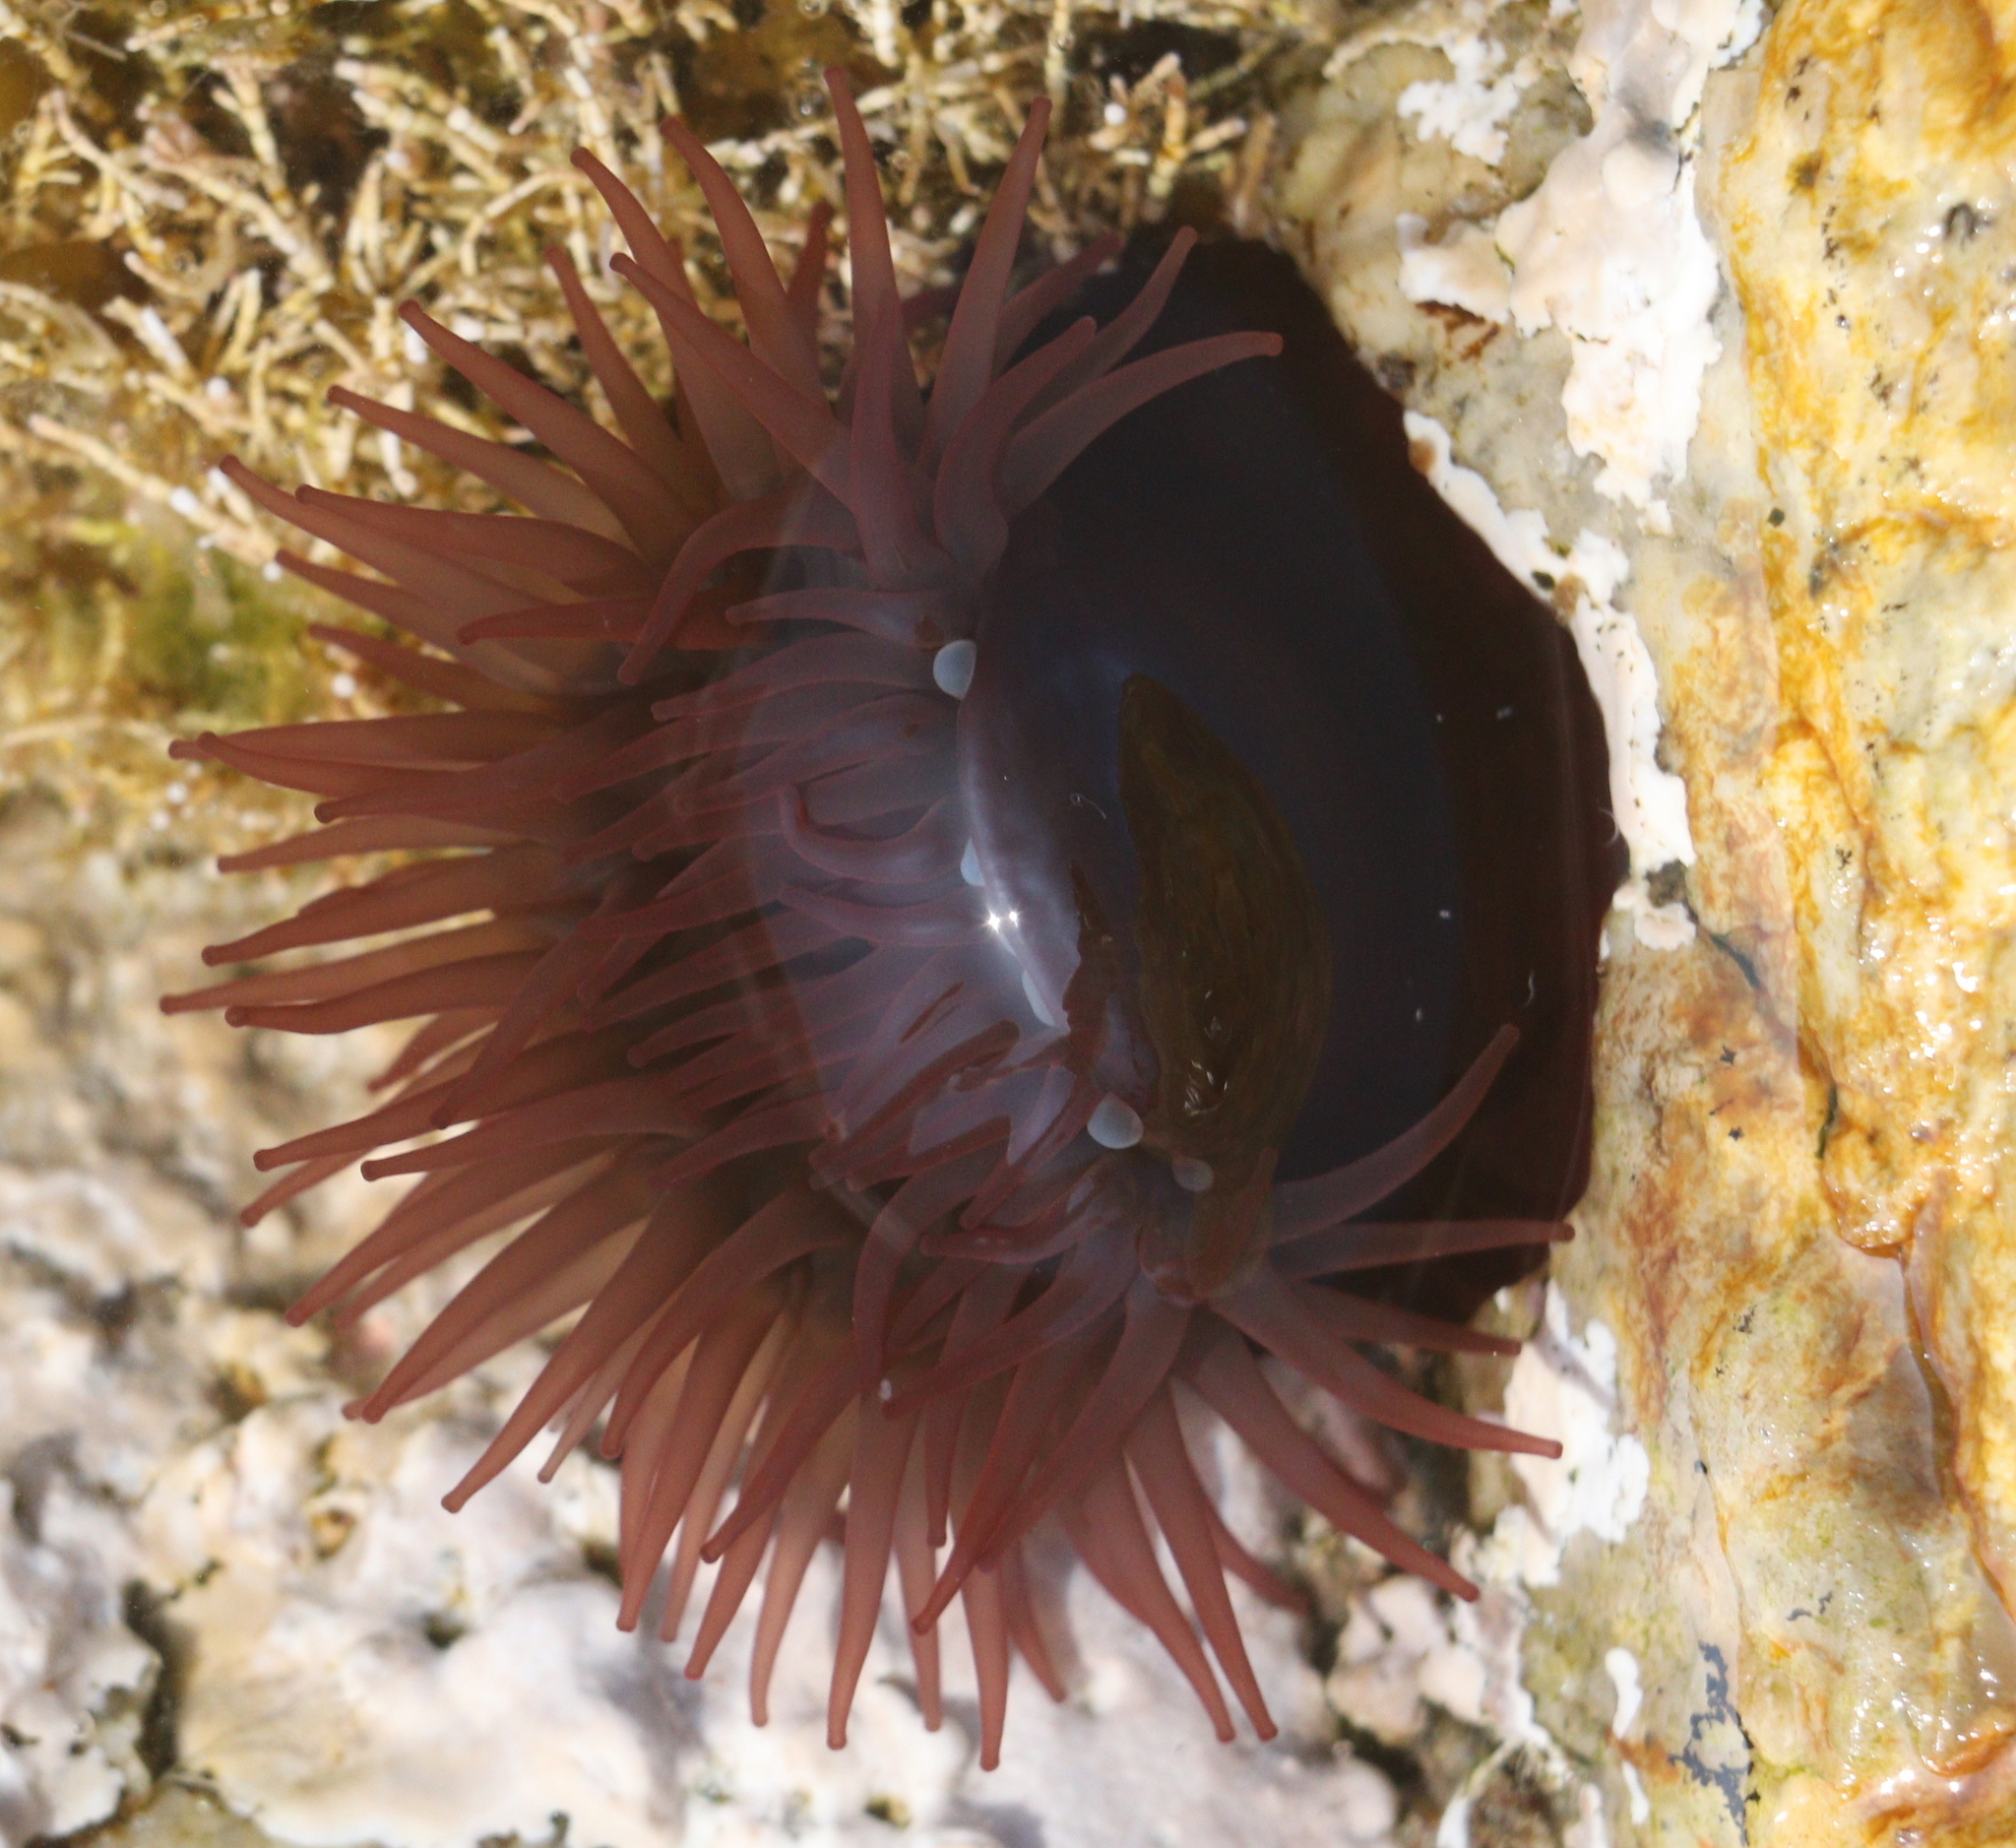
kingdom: Animalia
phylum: Cnidaria
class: Anthozoa
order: Actiniaria
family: Actiniidae
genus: Actinia
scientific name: Actinia equina
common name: Beadlet anemone
